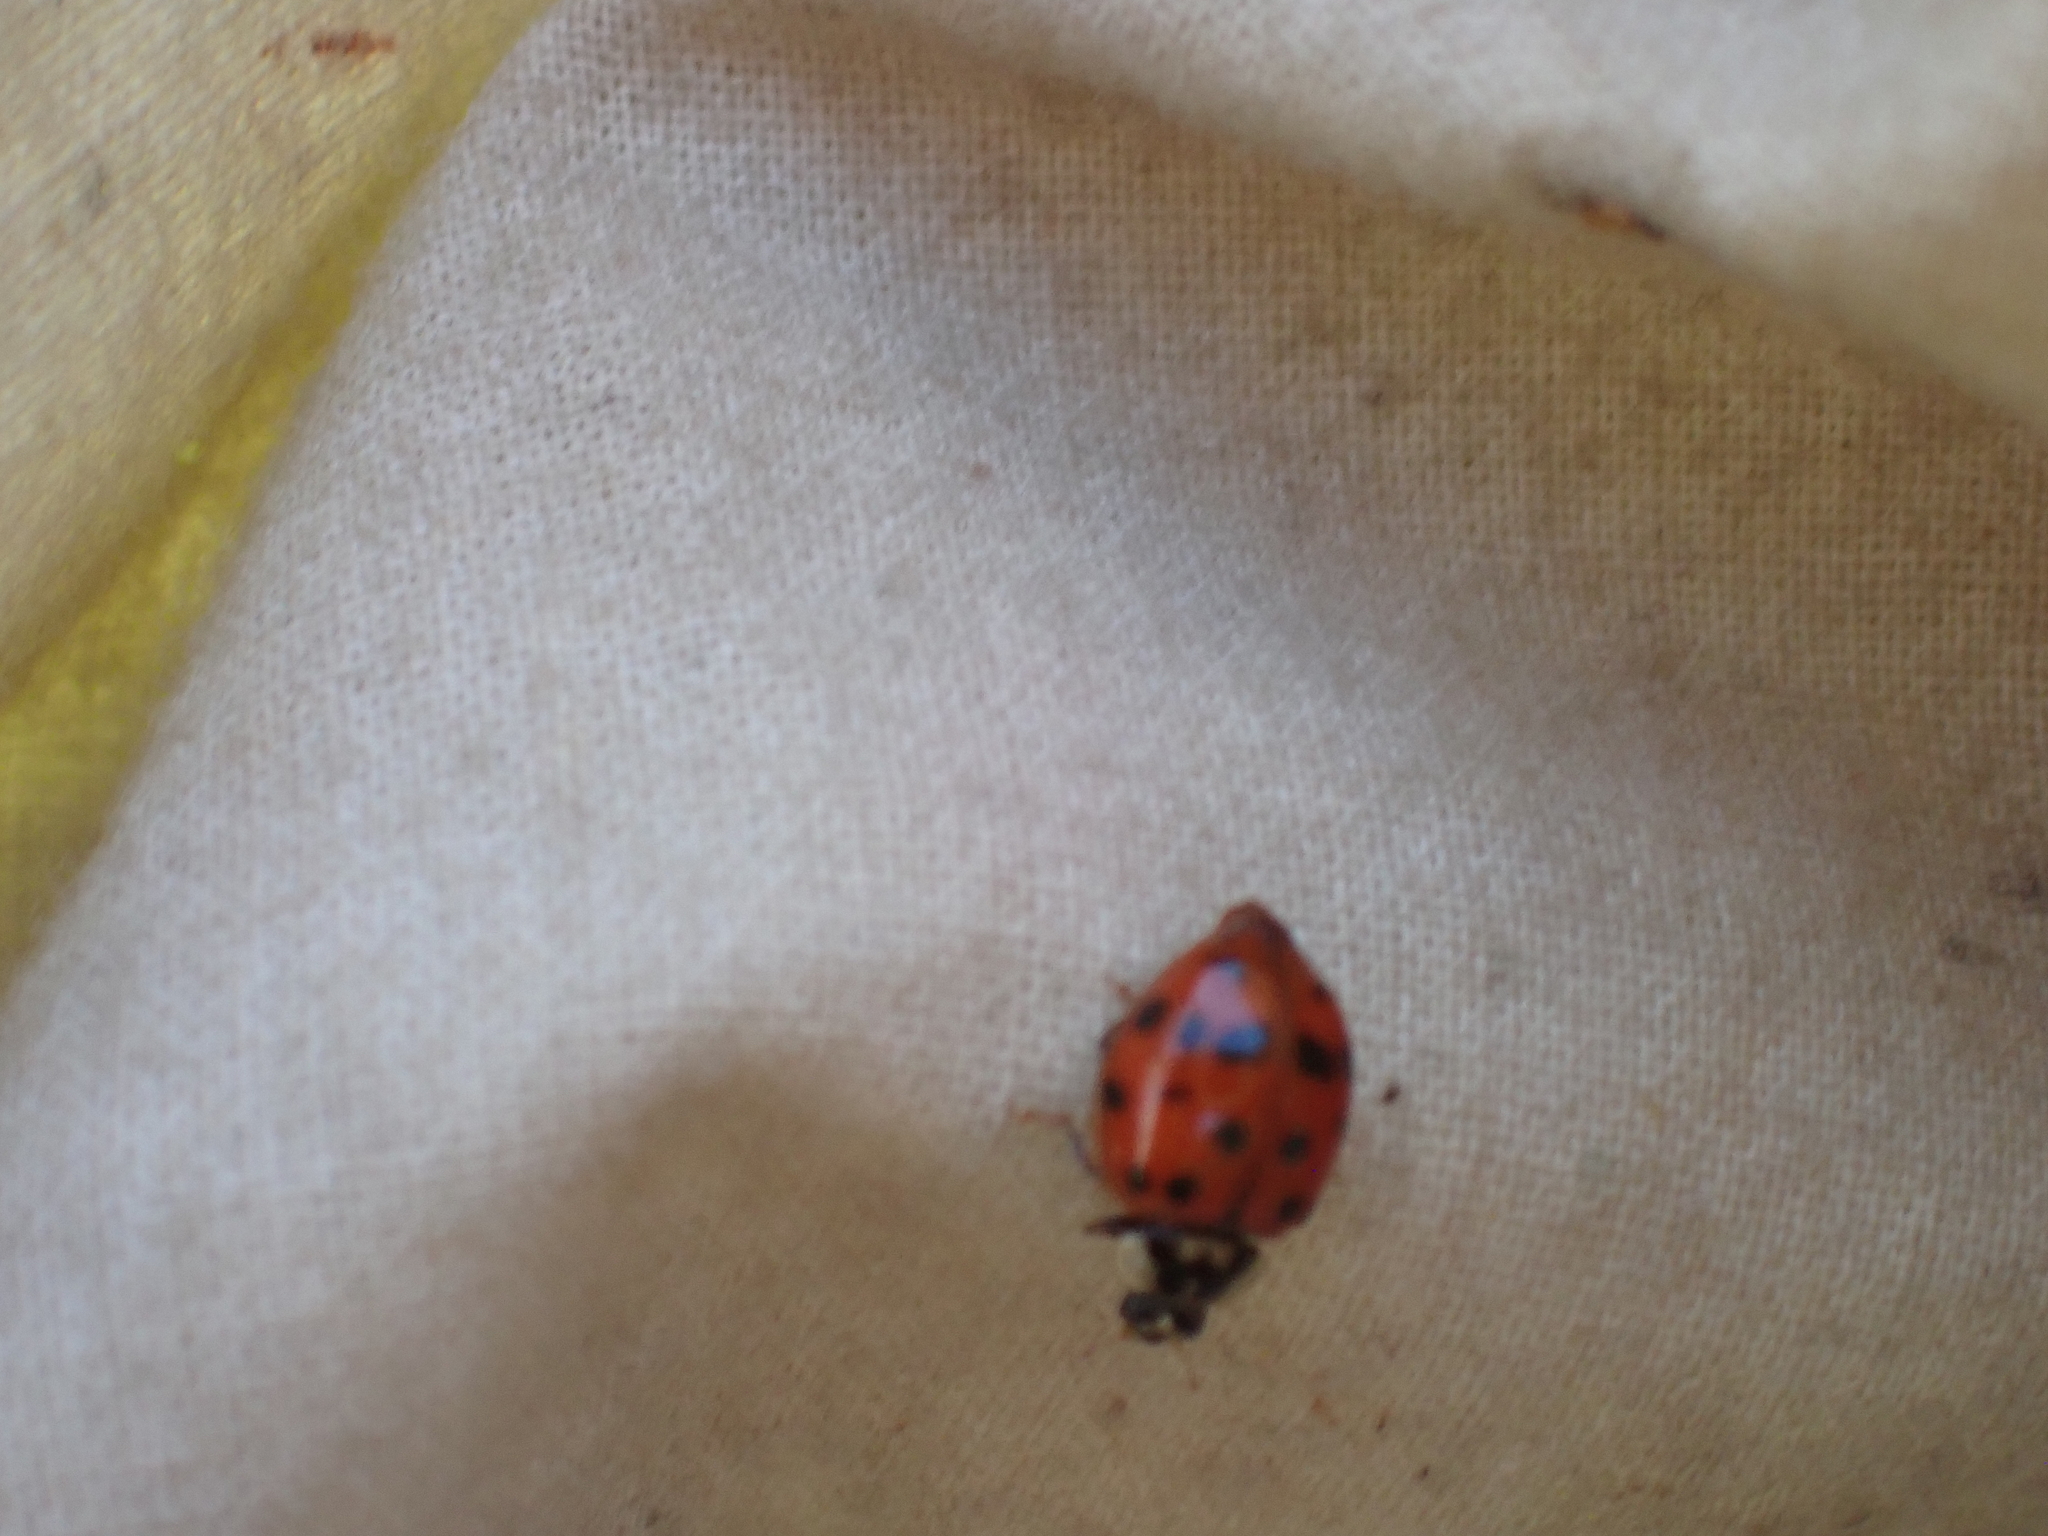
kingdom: Animalia
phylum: Arthropoda
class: Insecta
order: Coleoptera
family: Coccinellidae
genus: Harmonia
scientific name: Harmonia axyridis
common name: Harlequin ladybird
